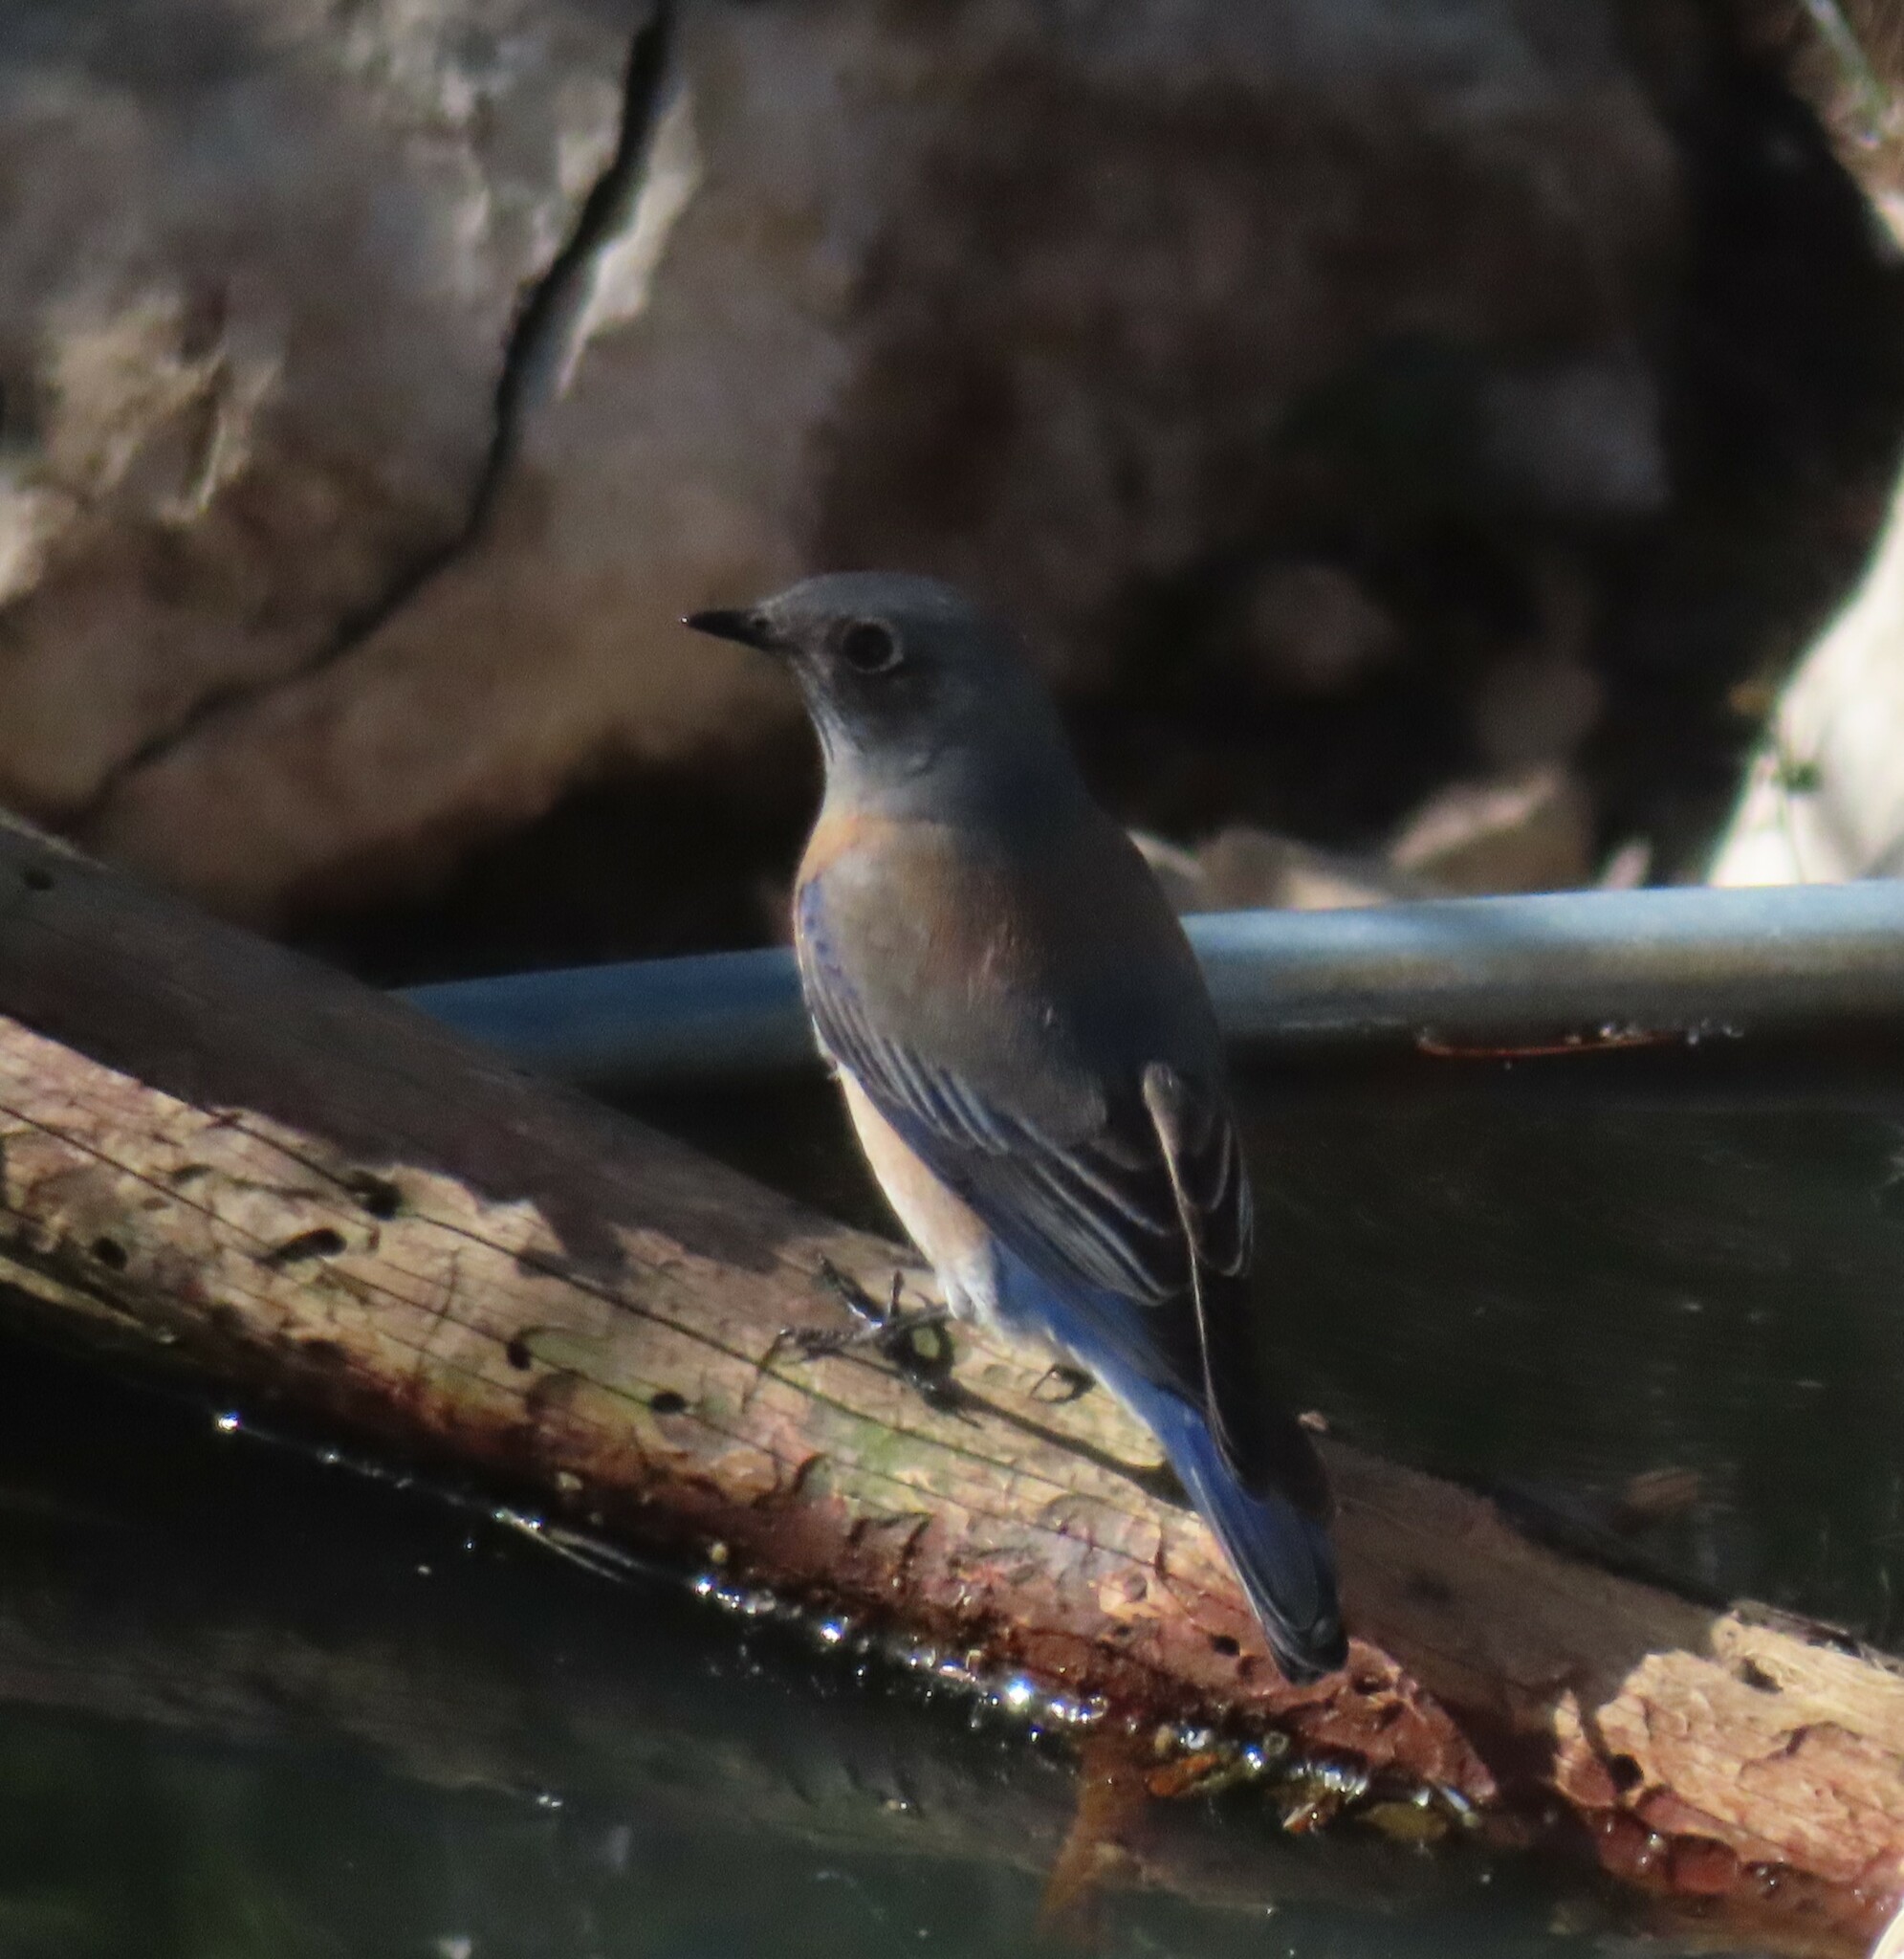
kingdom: Animalia
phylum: Chordata
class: Aves
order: Passeriformes
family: Turdidae
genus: Sialia
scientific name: Sialia mexicana
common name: Western bluebird
